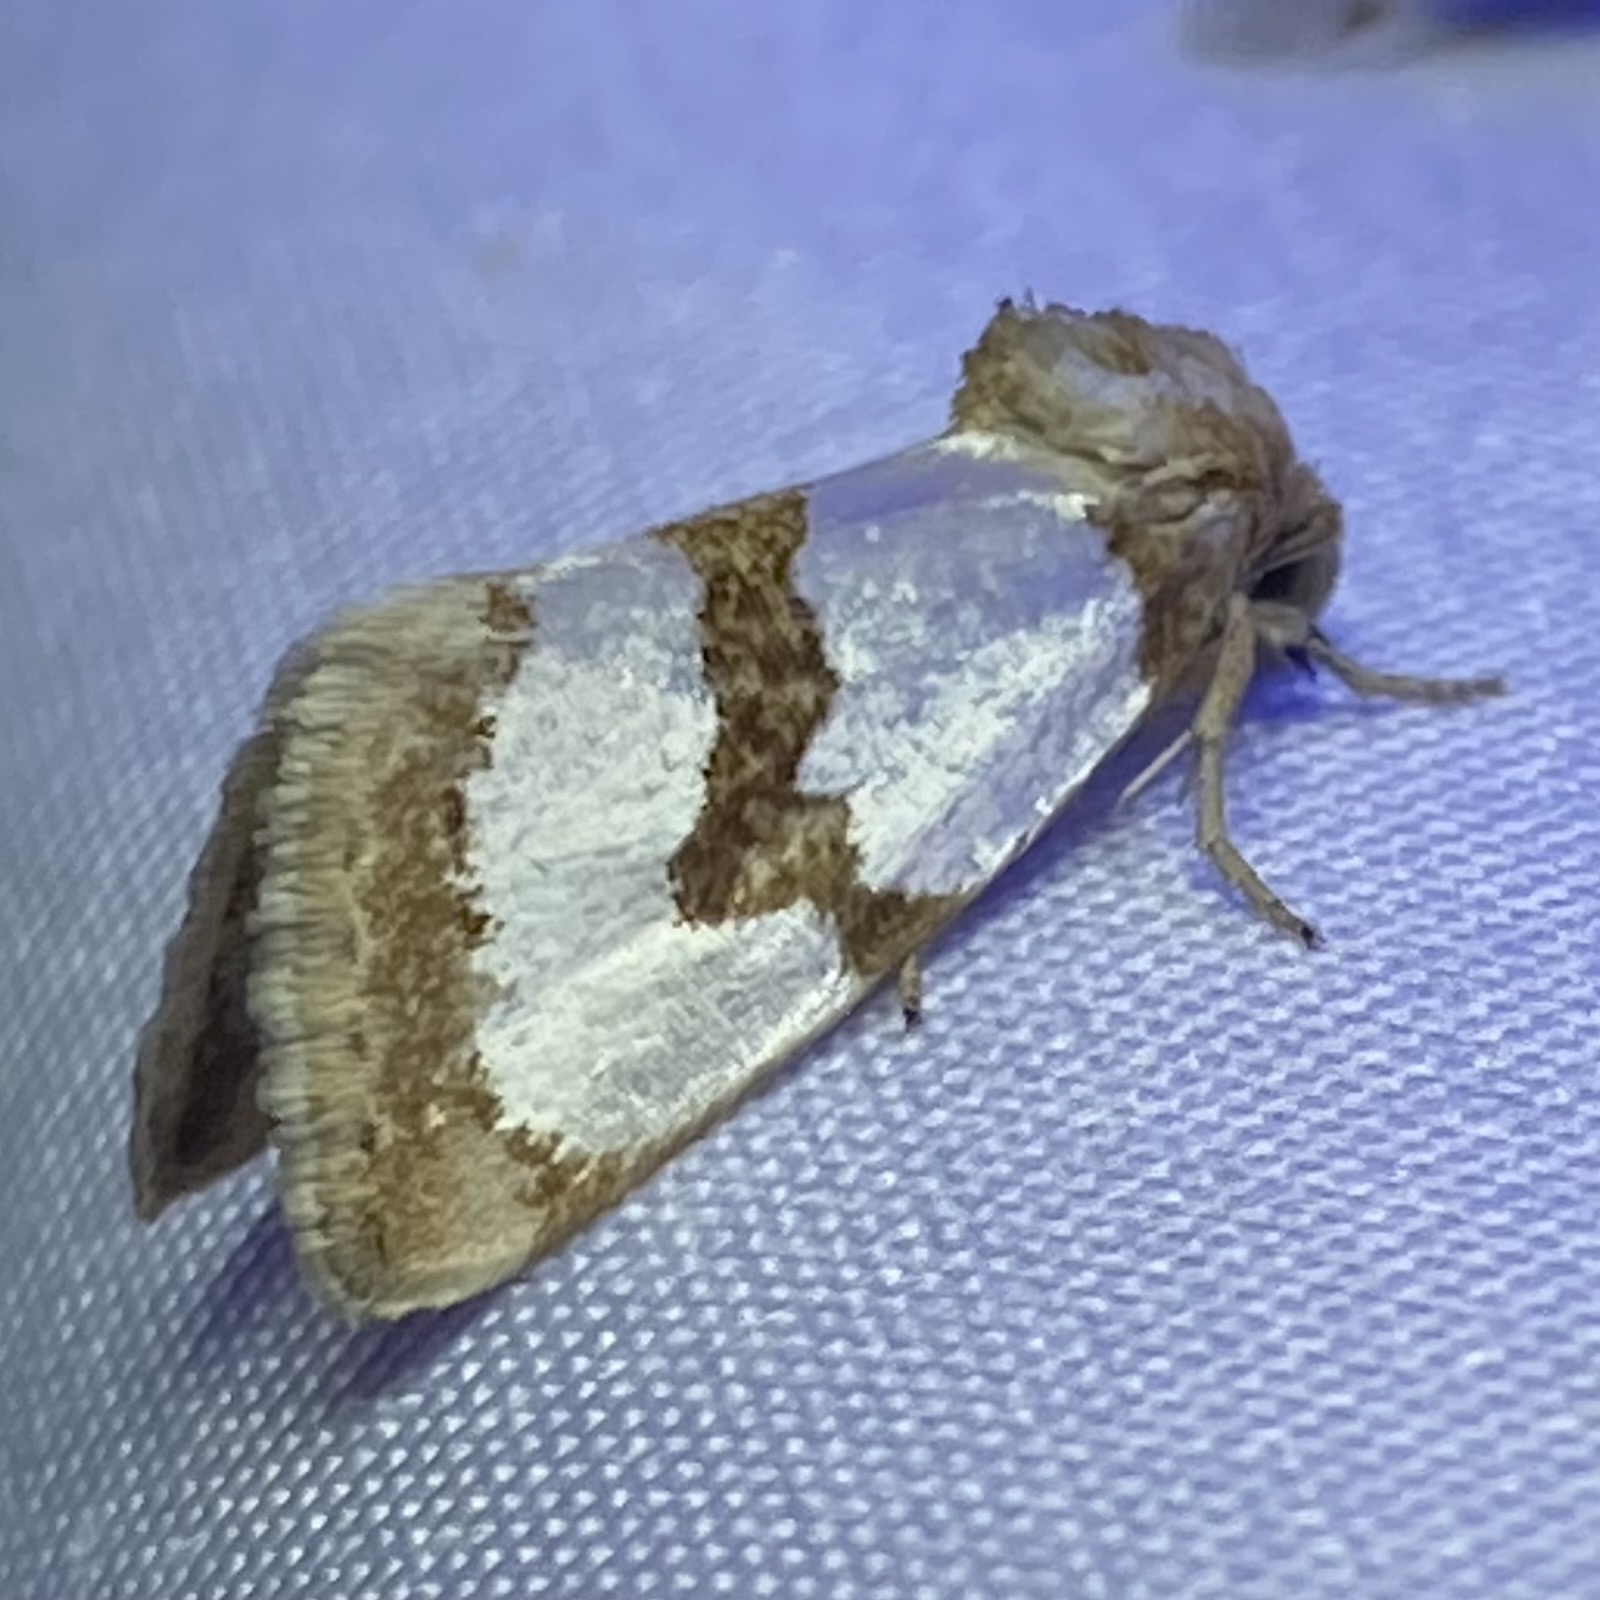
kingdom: Animalia
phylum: Arthropoda
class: Insecta
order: Lepidoptera
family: Noctuidae
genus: Schinia
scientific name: Schinia chrysellus
